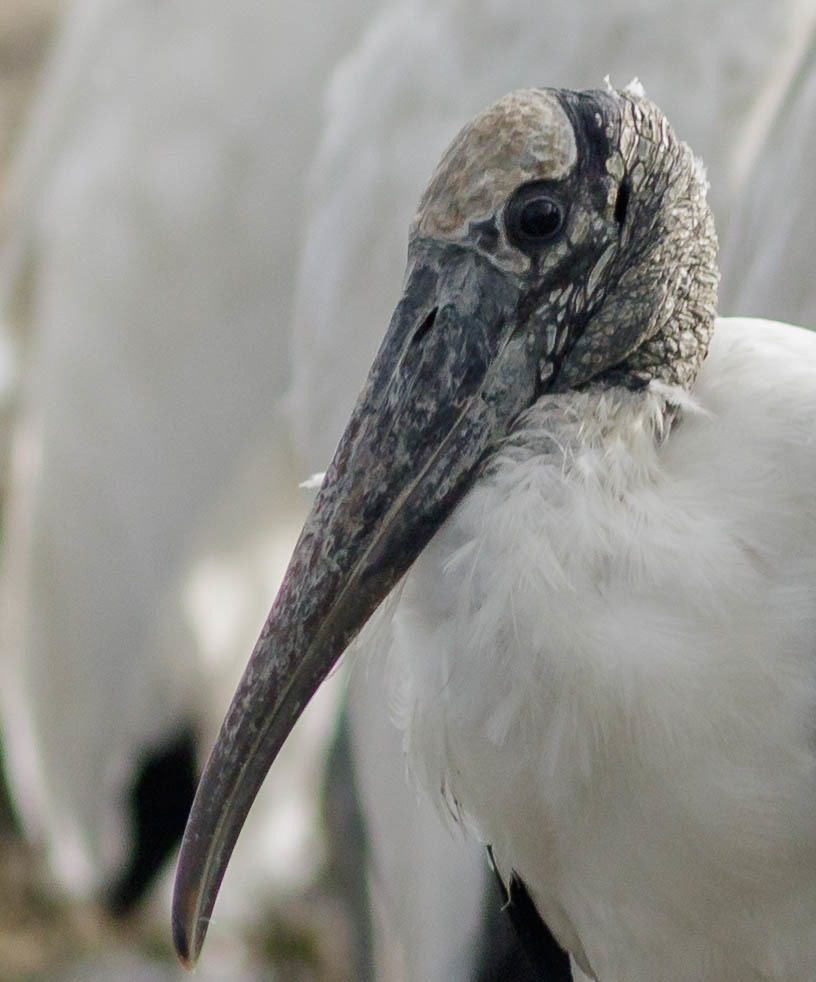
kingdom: Animalia
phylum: Chordata
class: Aves
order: Ciconiiformes
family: Ciconiidae
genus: Mycteria
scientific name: Mycteria americana
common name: Wood stork
